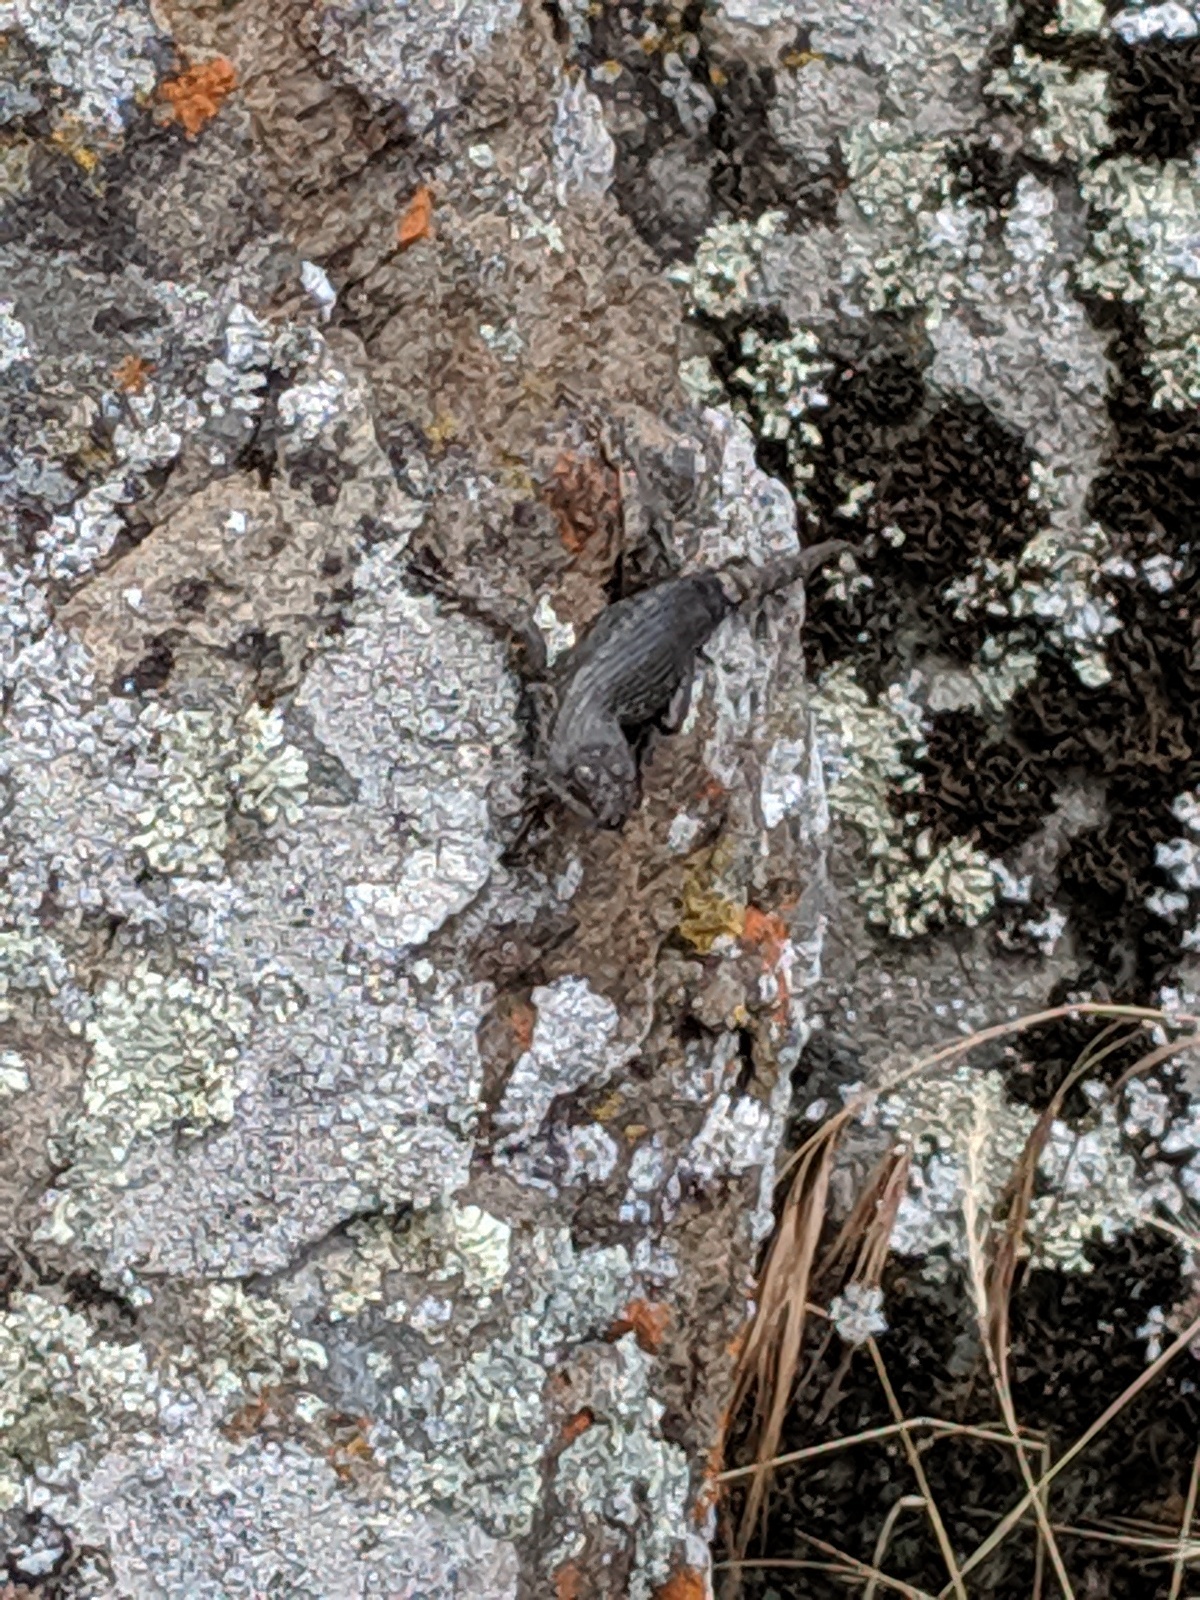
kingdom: Animalia
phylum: Chordata
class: Squamata
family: Phrynosomatidae
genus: Sceloporus
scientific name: Sceloporus occidentalis
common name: Western fence lizard
